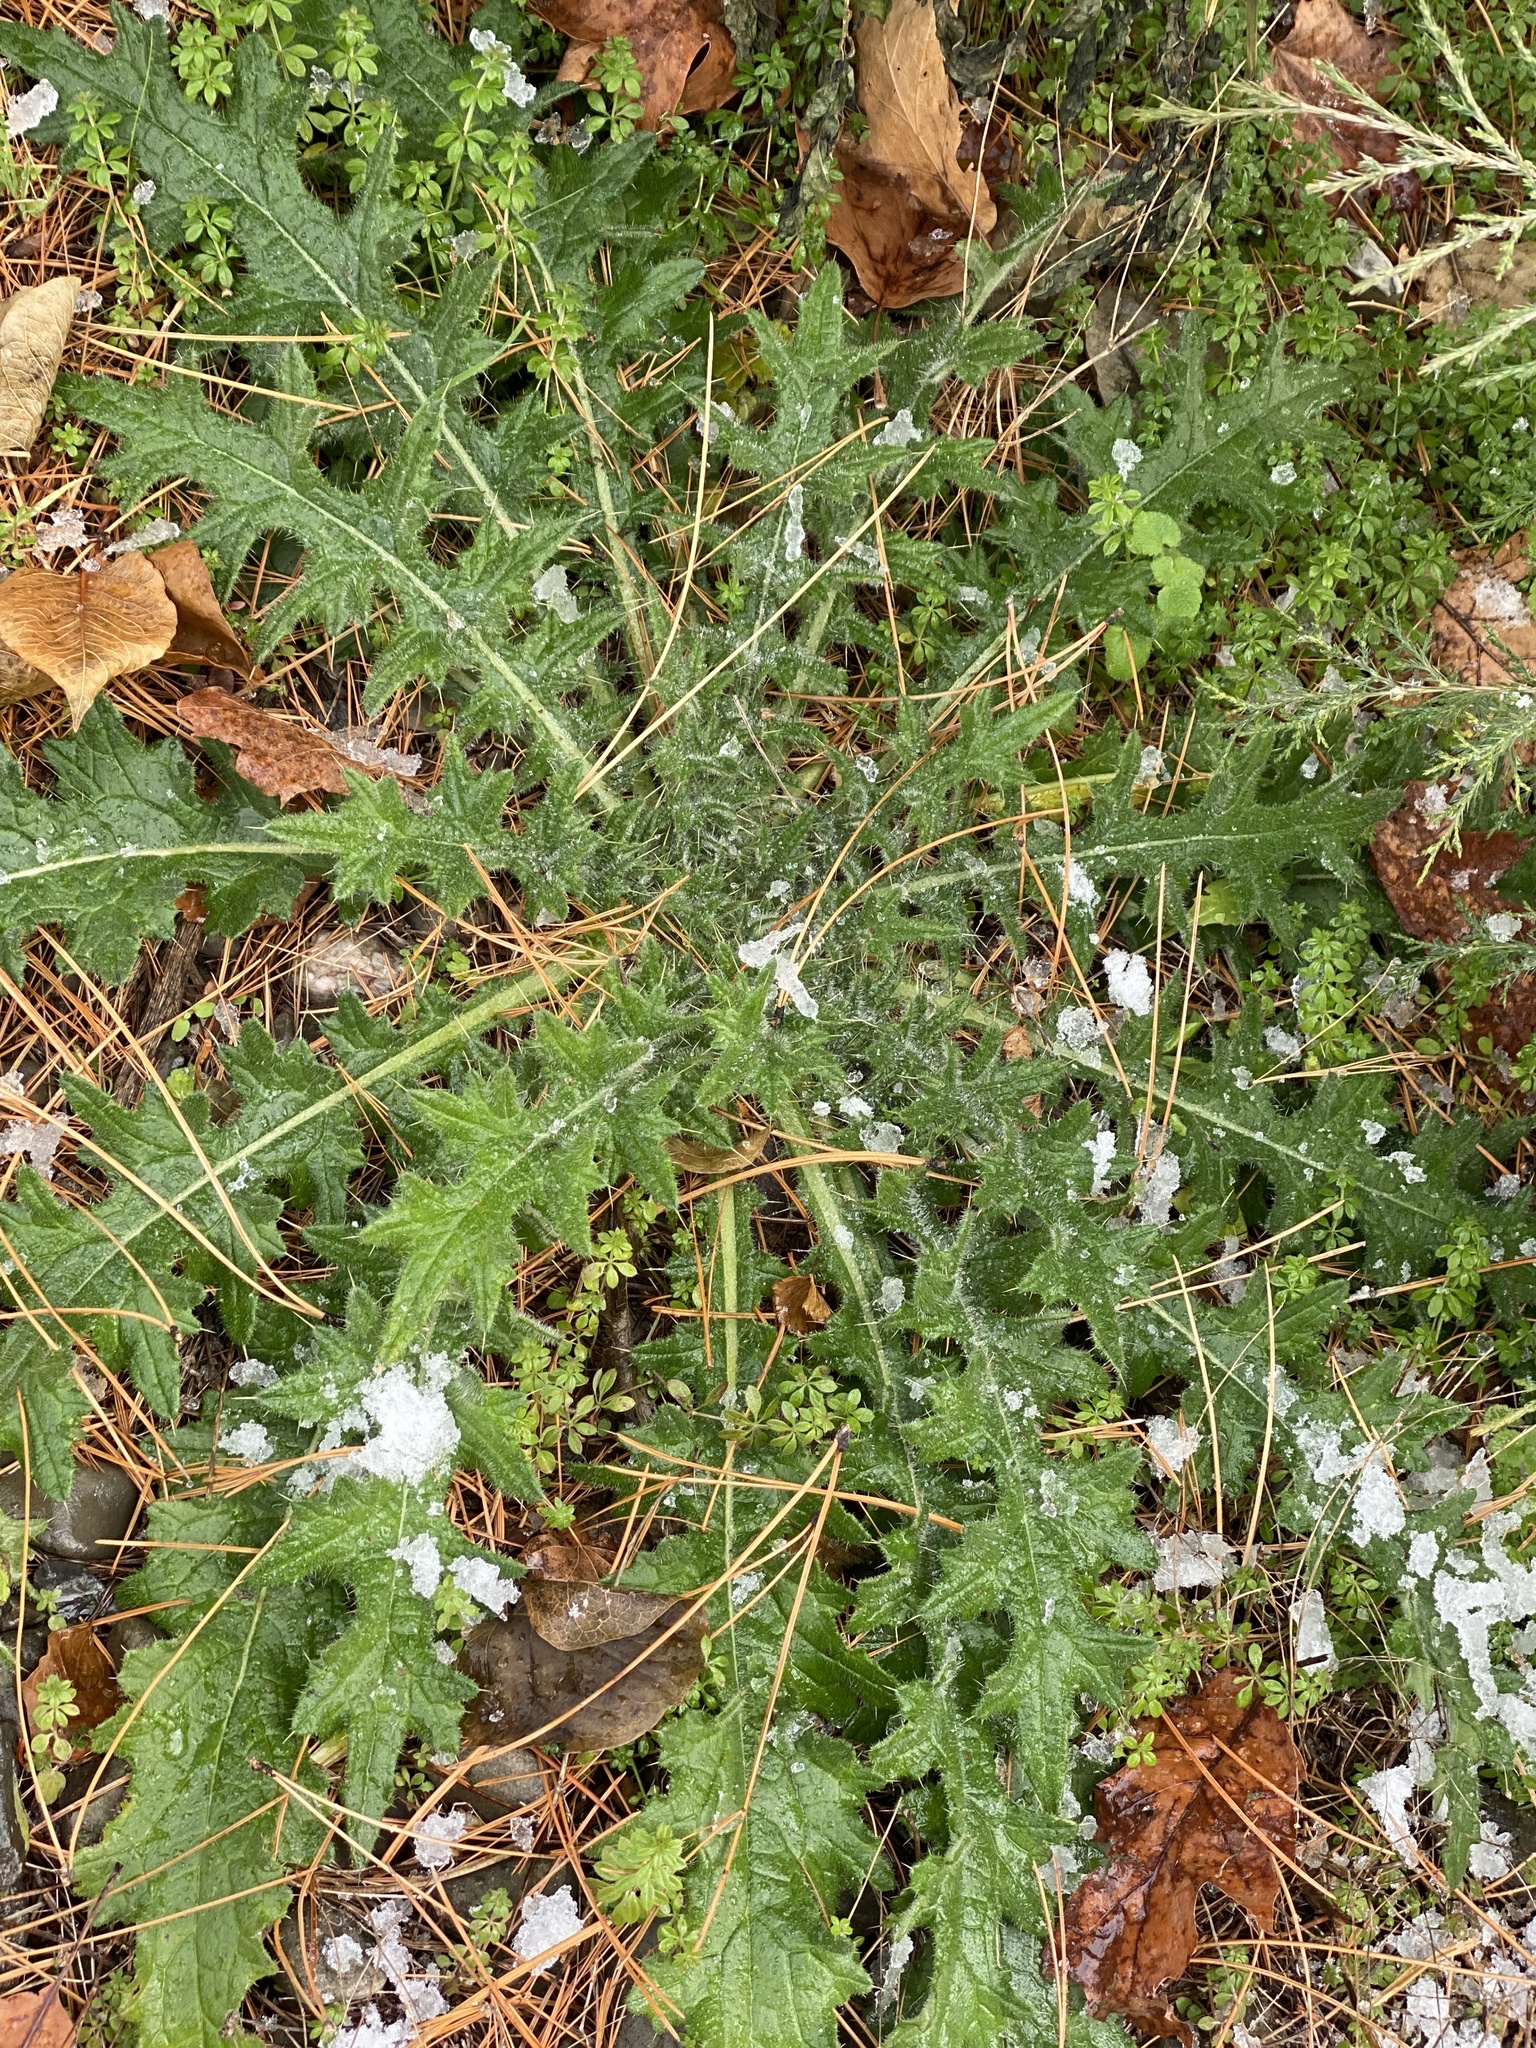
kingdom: Plantae
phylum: Tracheophyta
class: Magnoliopsida
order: Asterales
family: Asteraceae
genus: Cirsium
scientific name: Cirsium vulgare
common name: Bull thistle
